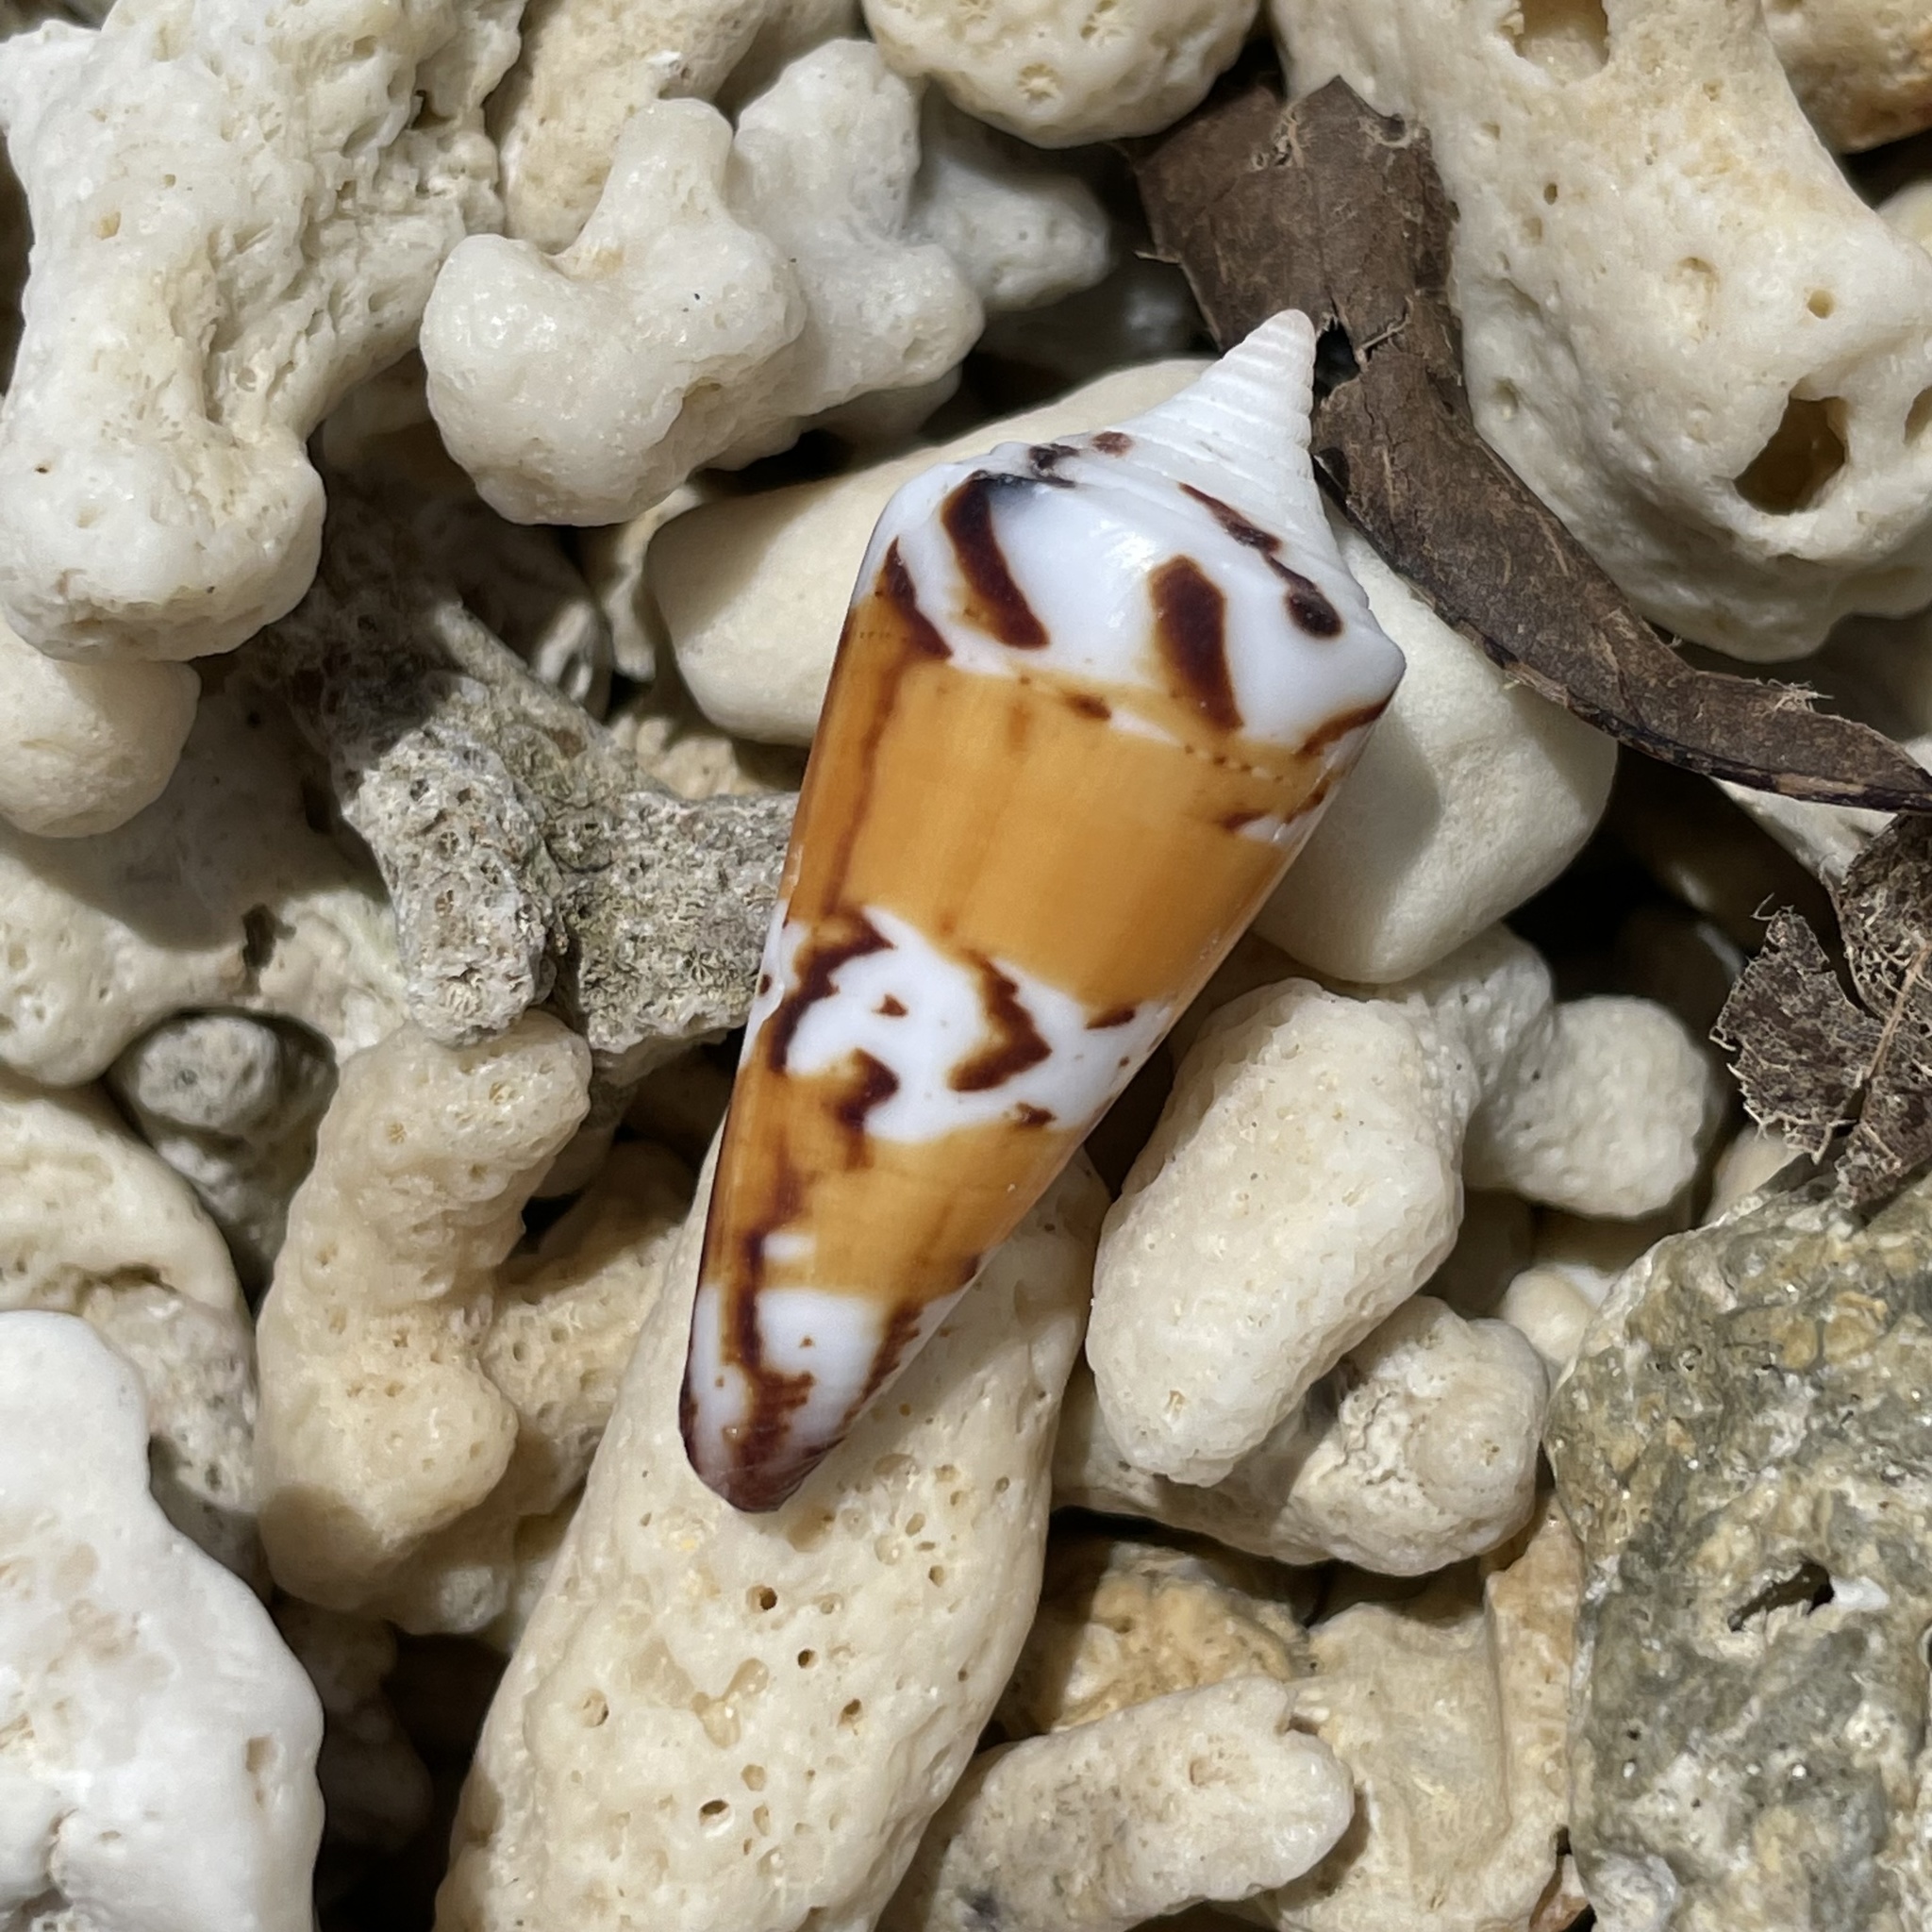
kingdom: Animalia
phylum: Mollusca
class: Gastropoda
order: Neogastropoda
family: Conidae
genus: Conus
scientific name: Conus generalis
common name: General cone
